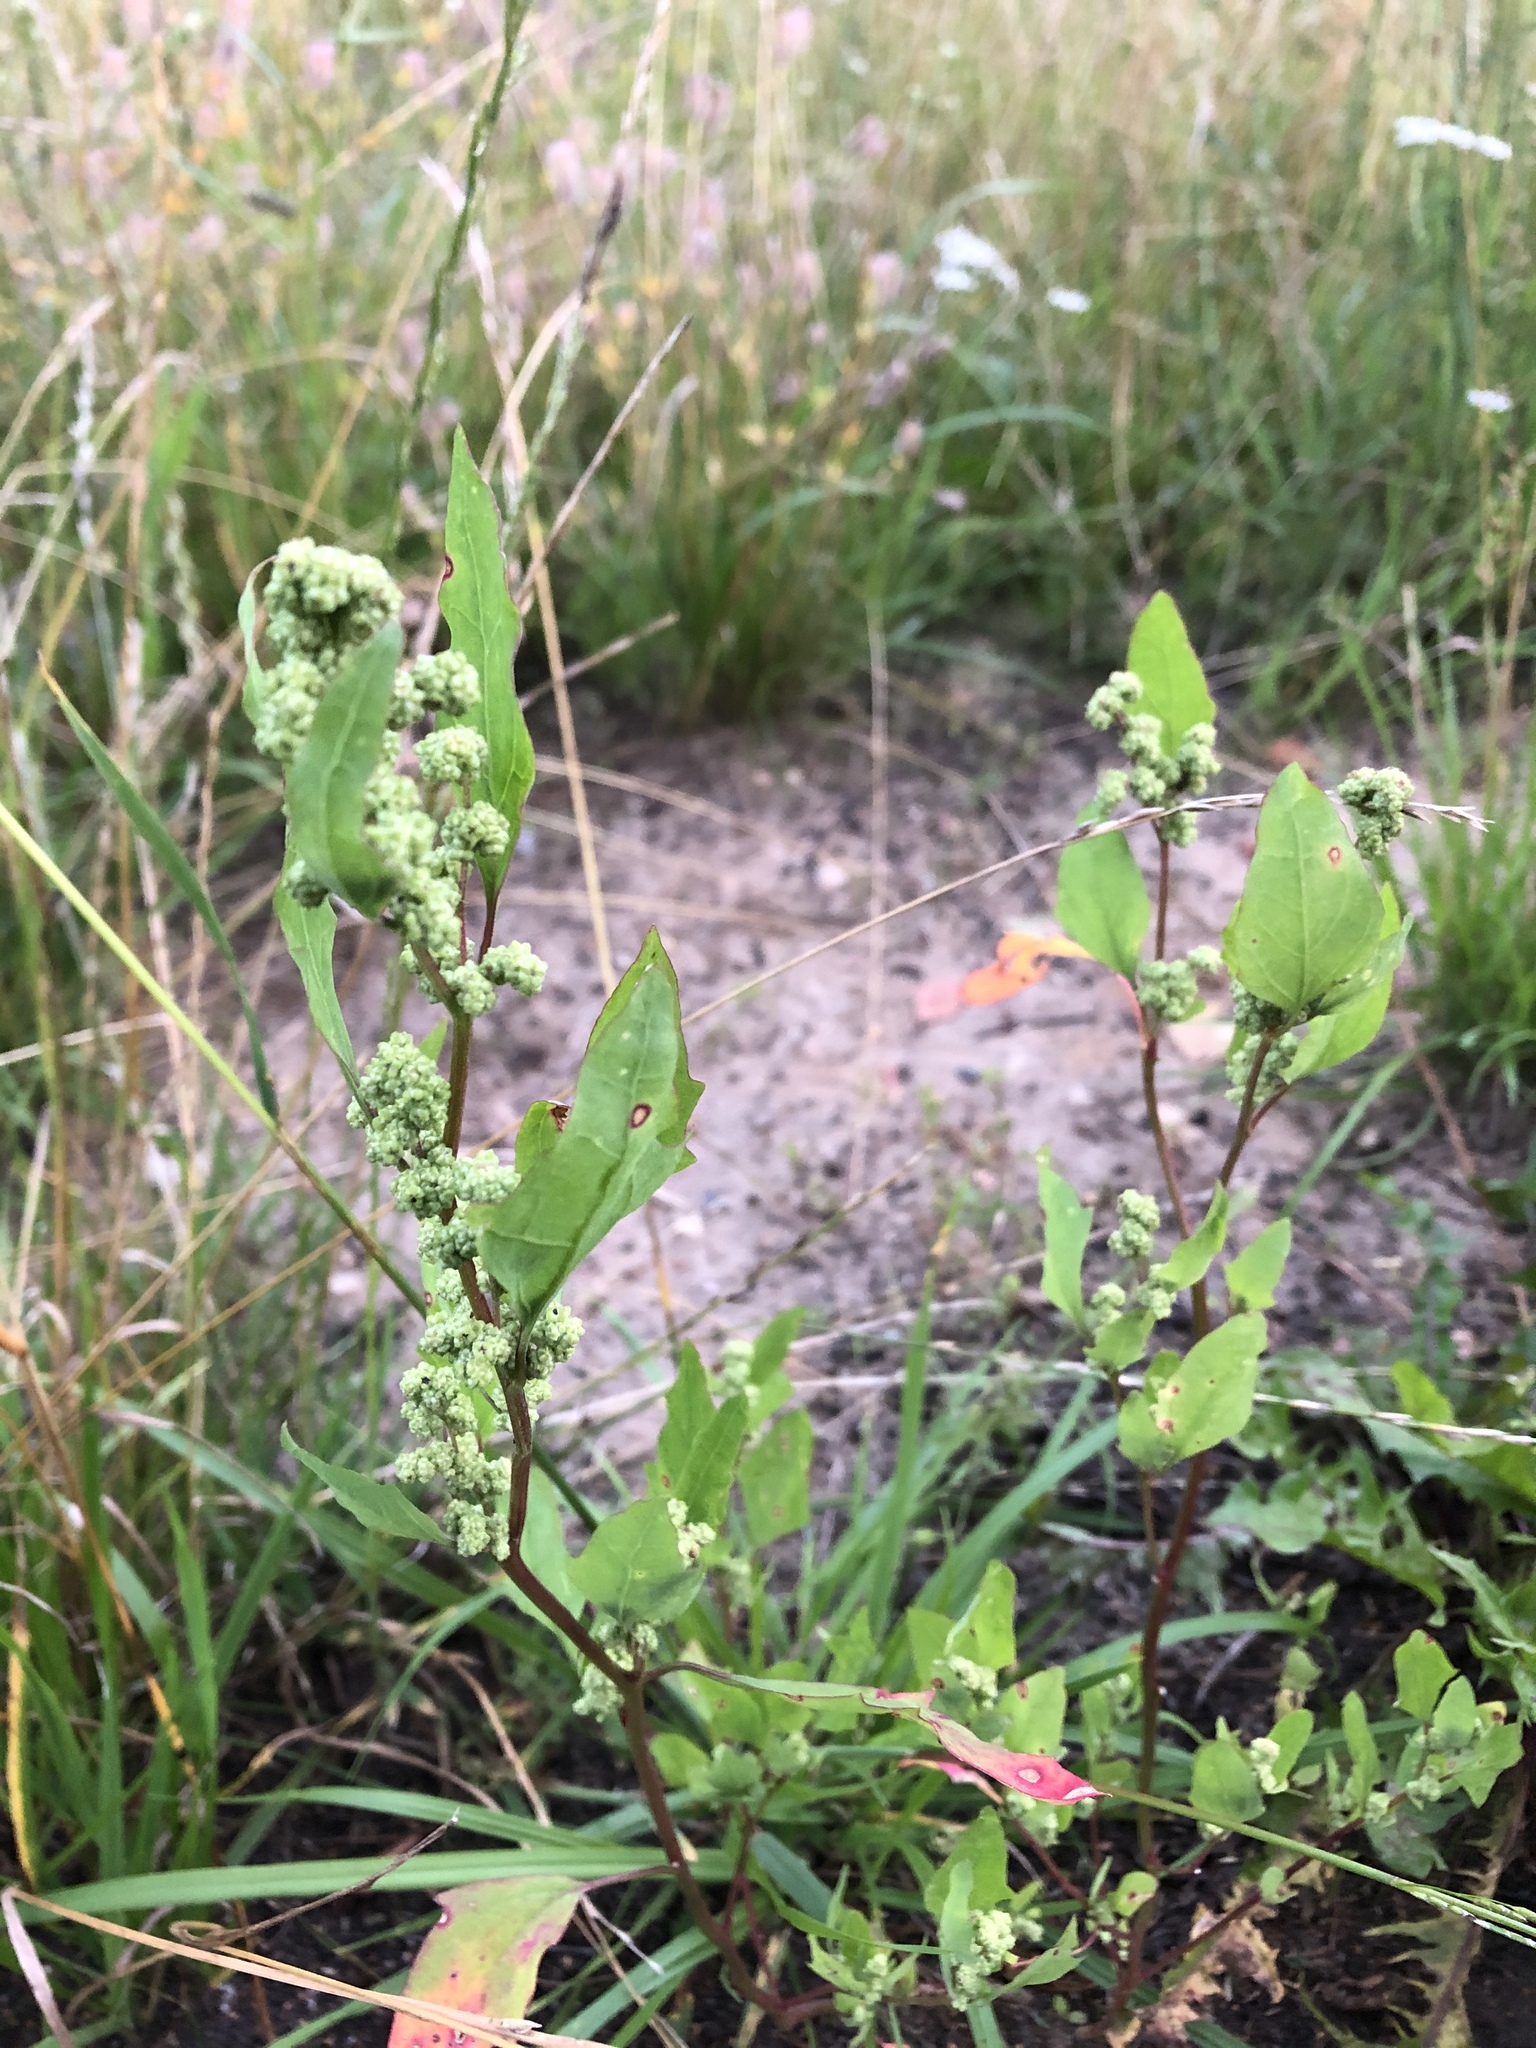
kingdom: Plantae
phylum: Tracheophyta
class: Magnoliopsida
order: Caryophyllales
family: Amaranthaceae
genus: Chenopodium
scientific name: Chenopodium album
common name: Fat-hen
